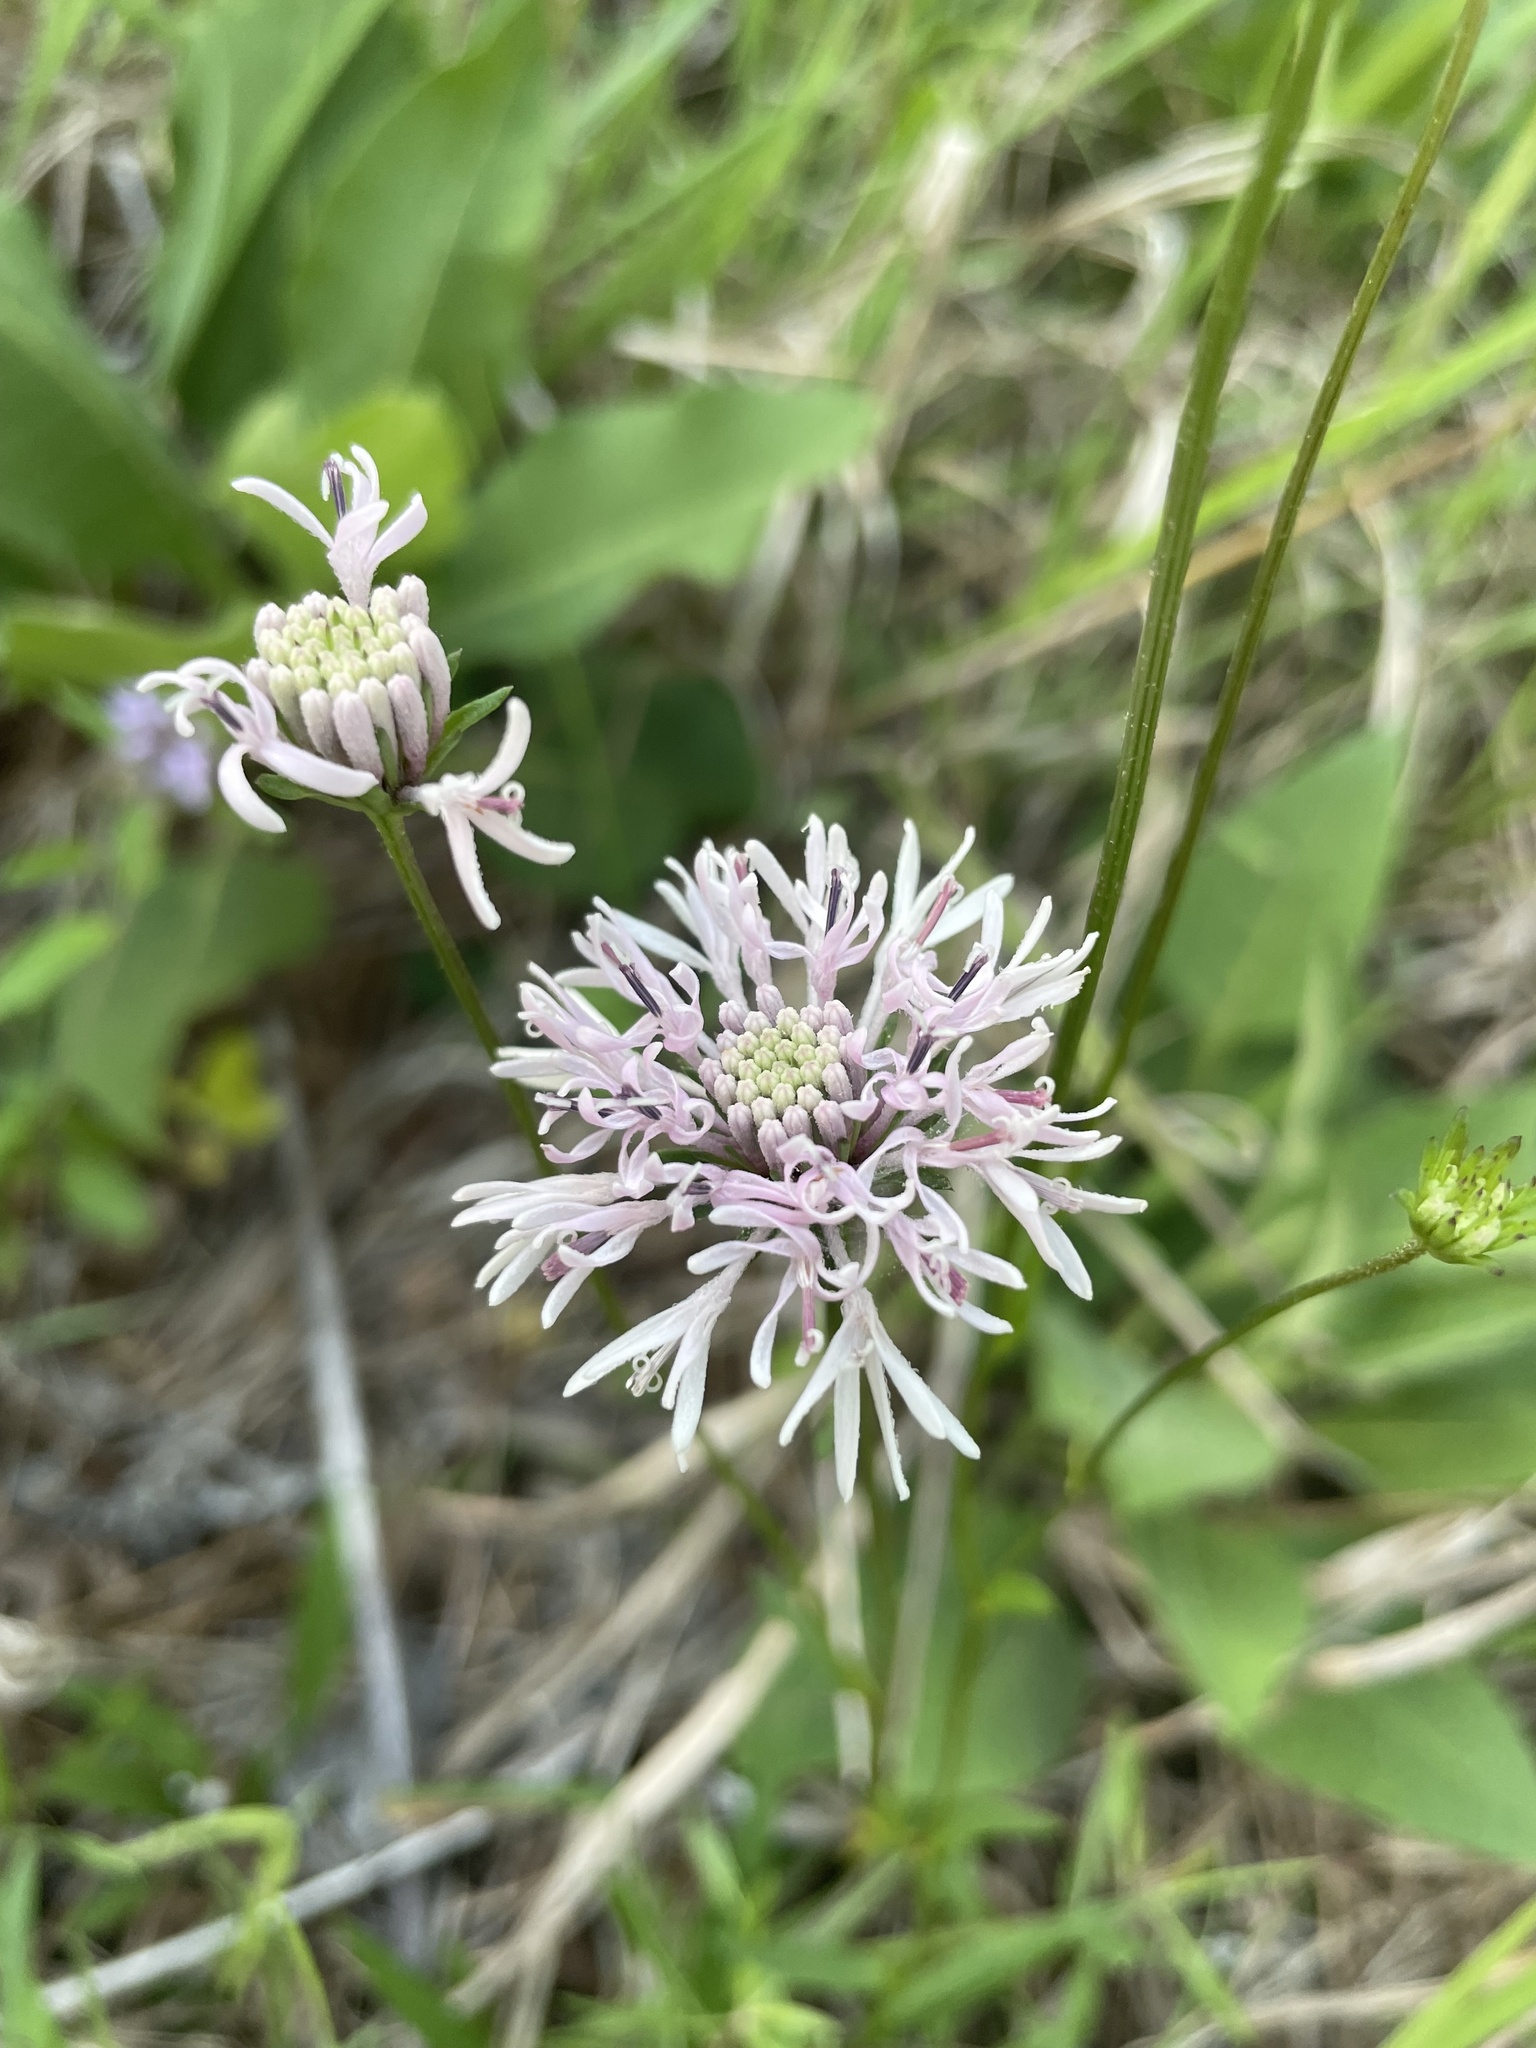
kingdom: Plantae
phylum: Tracheophyta
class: Magnoliopsida
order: Asterales
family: Asteraceae
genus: Marshallia
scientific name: Marshallia mohrii
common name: Mohr's barbara's buttons
